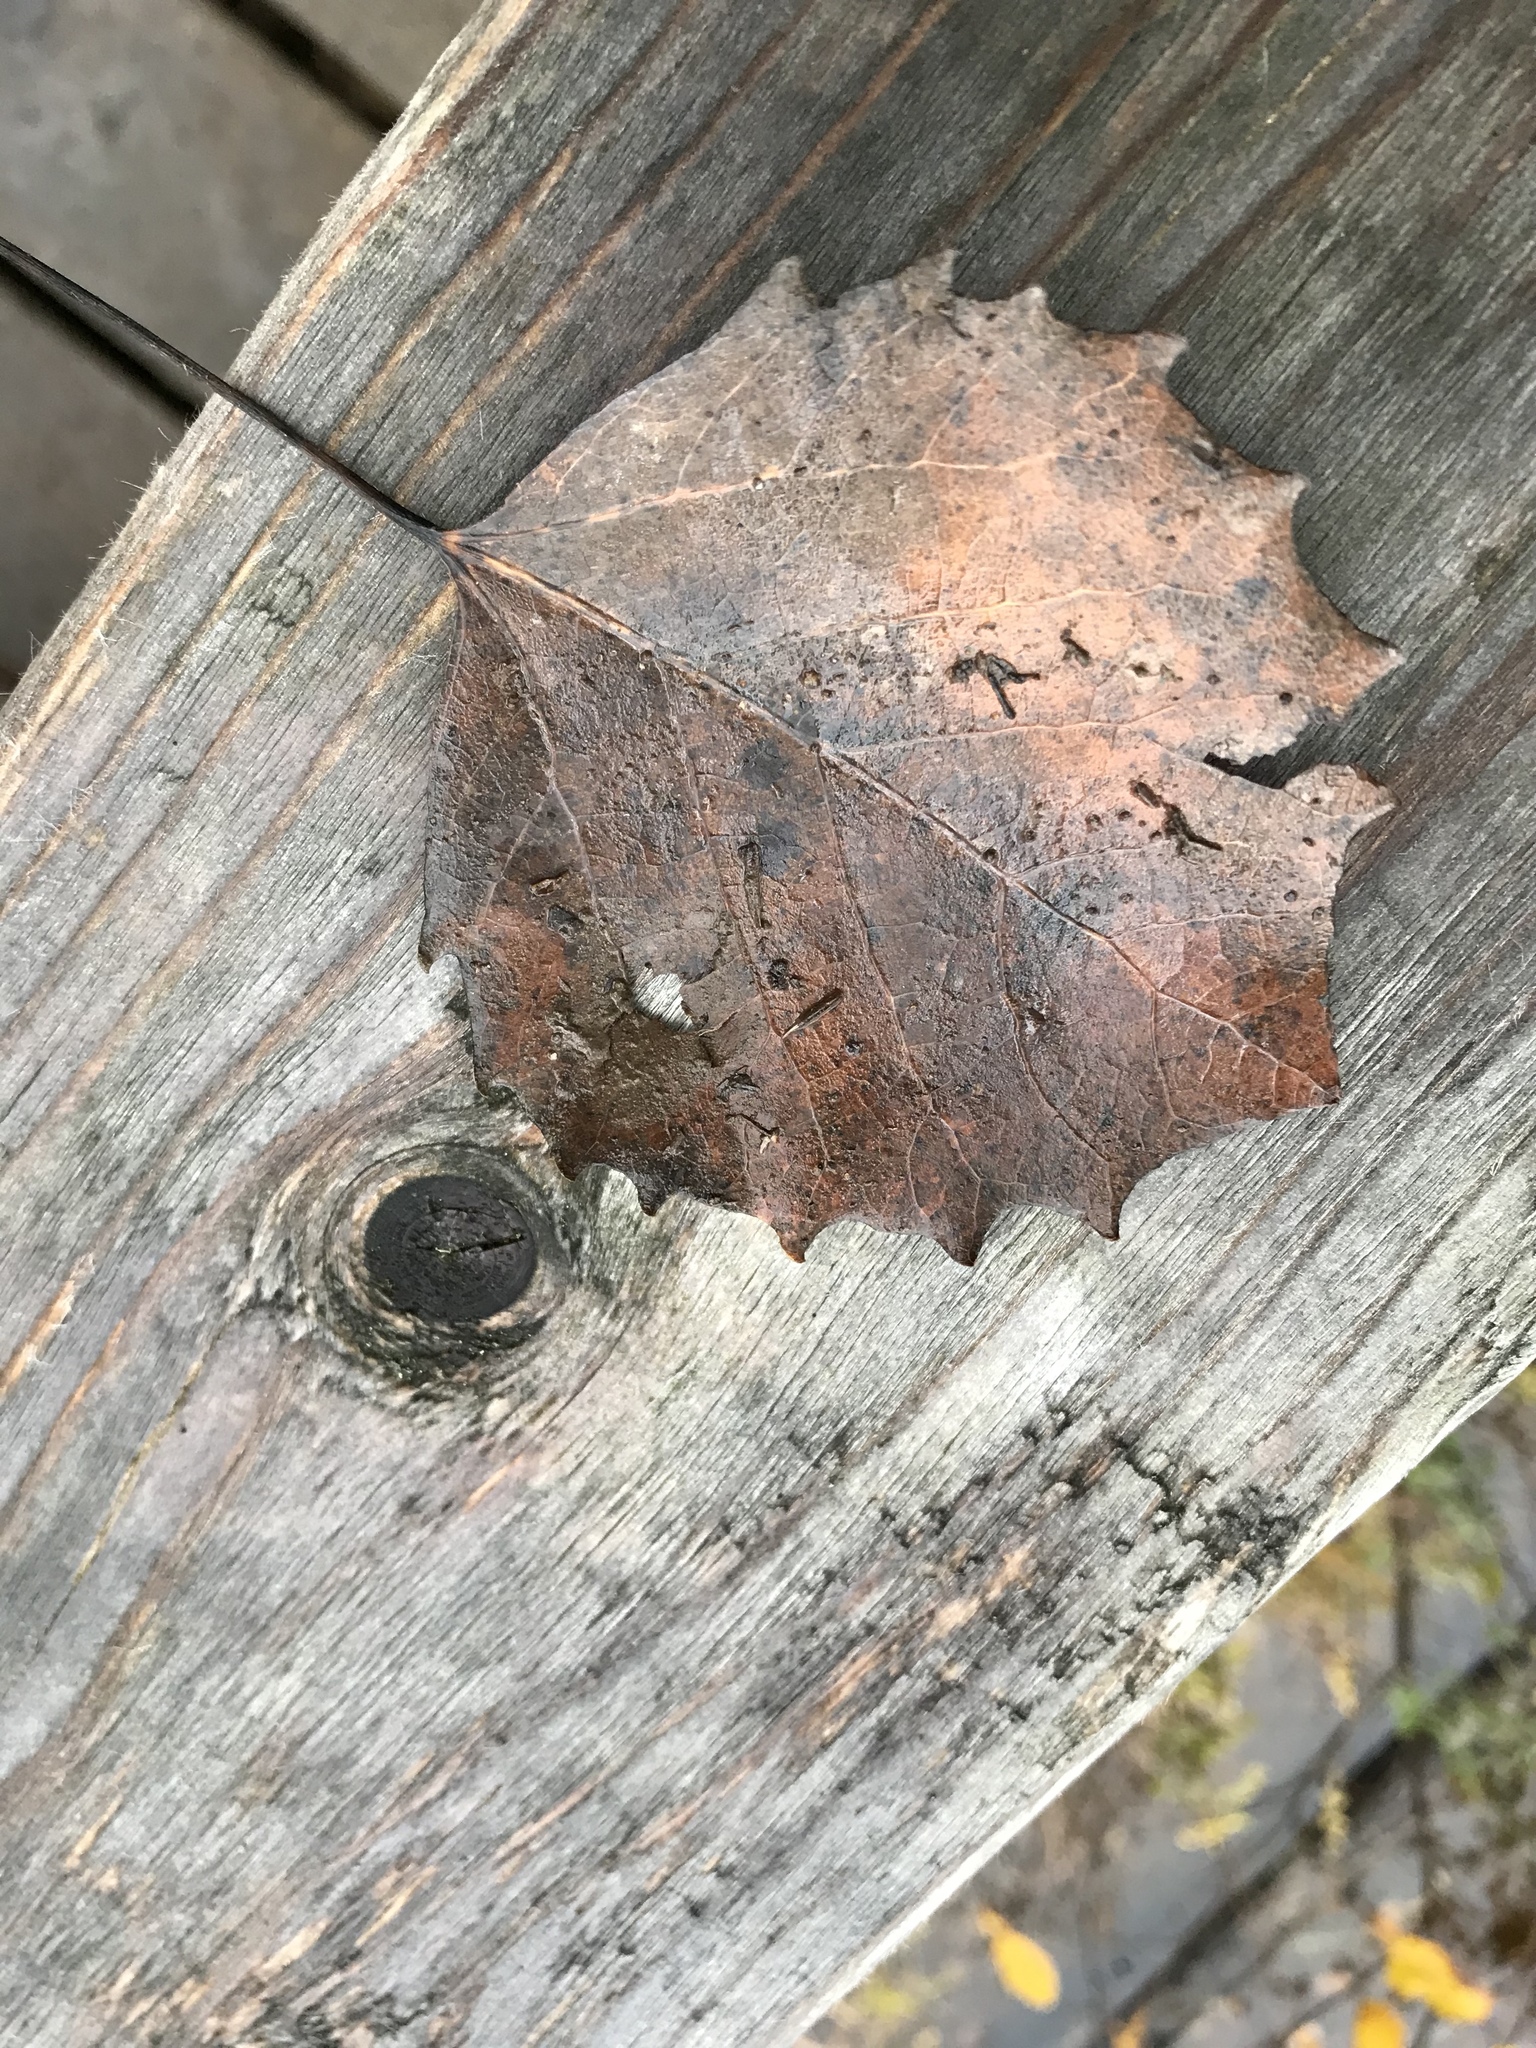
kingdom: Plantae
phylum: Tracheophyta
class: Magnoliopsida
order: Malpighiales
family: Salicaceae
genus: Populus
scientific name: Populus grandidentata
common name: Bigtooth aspen
